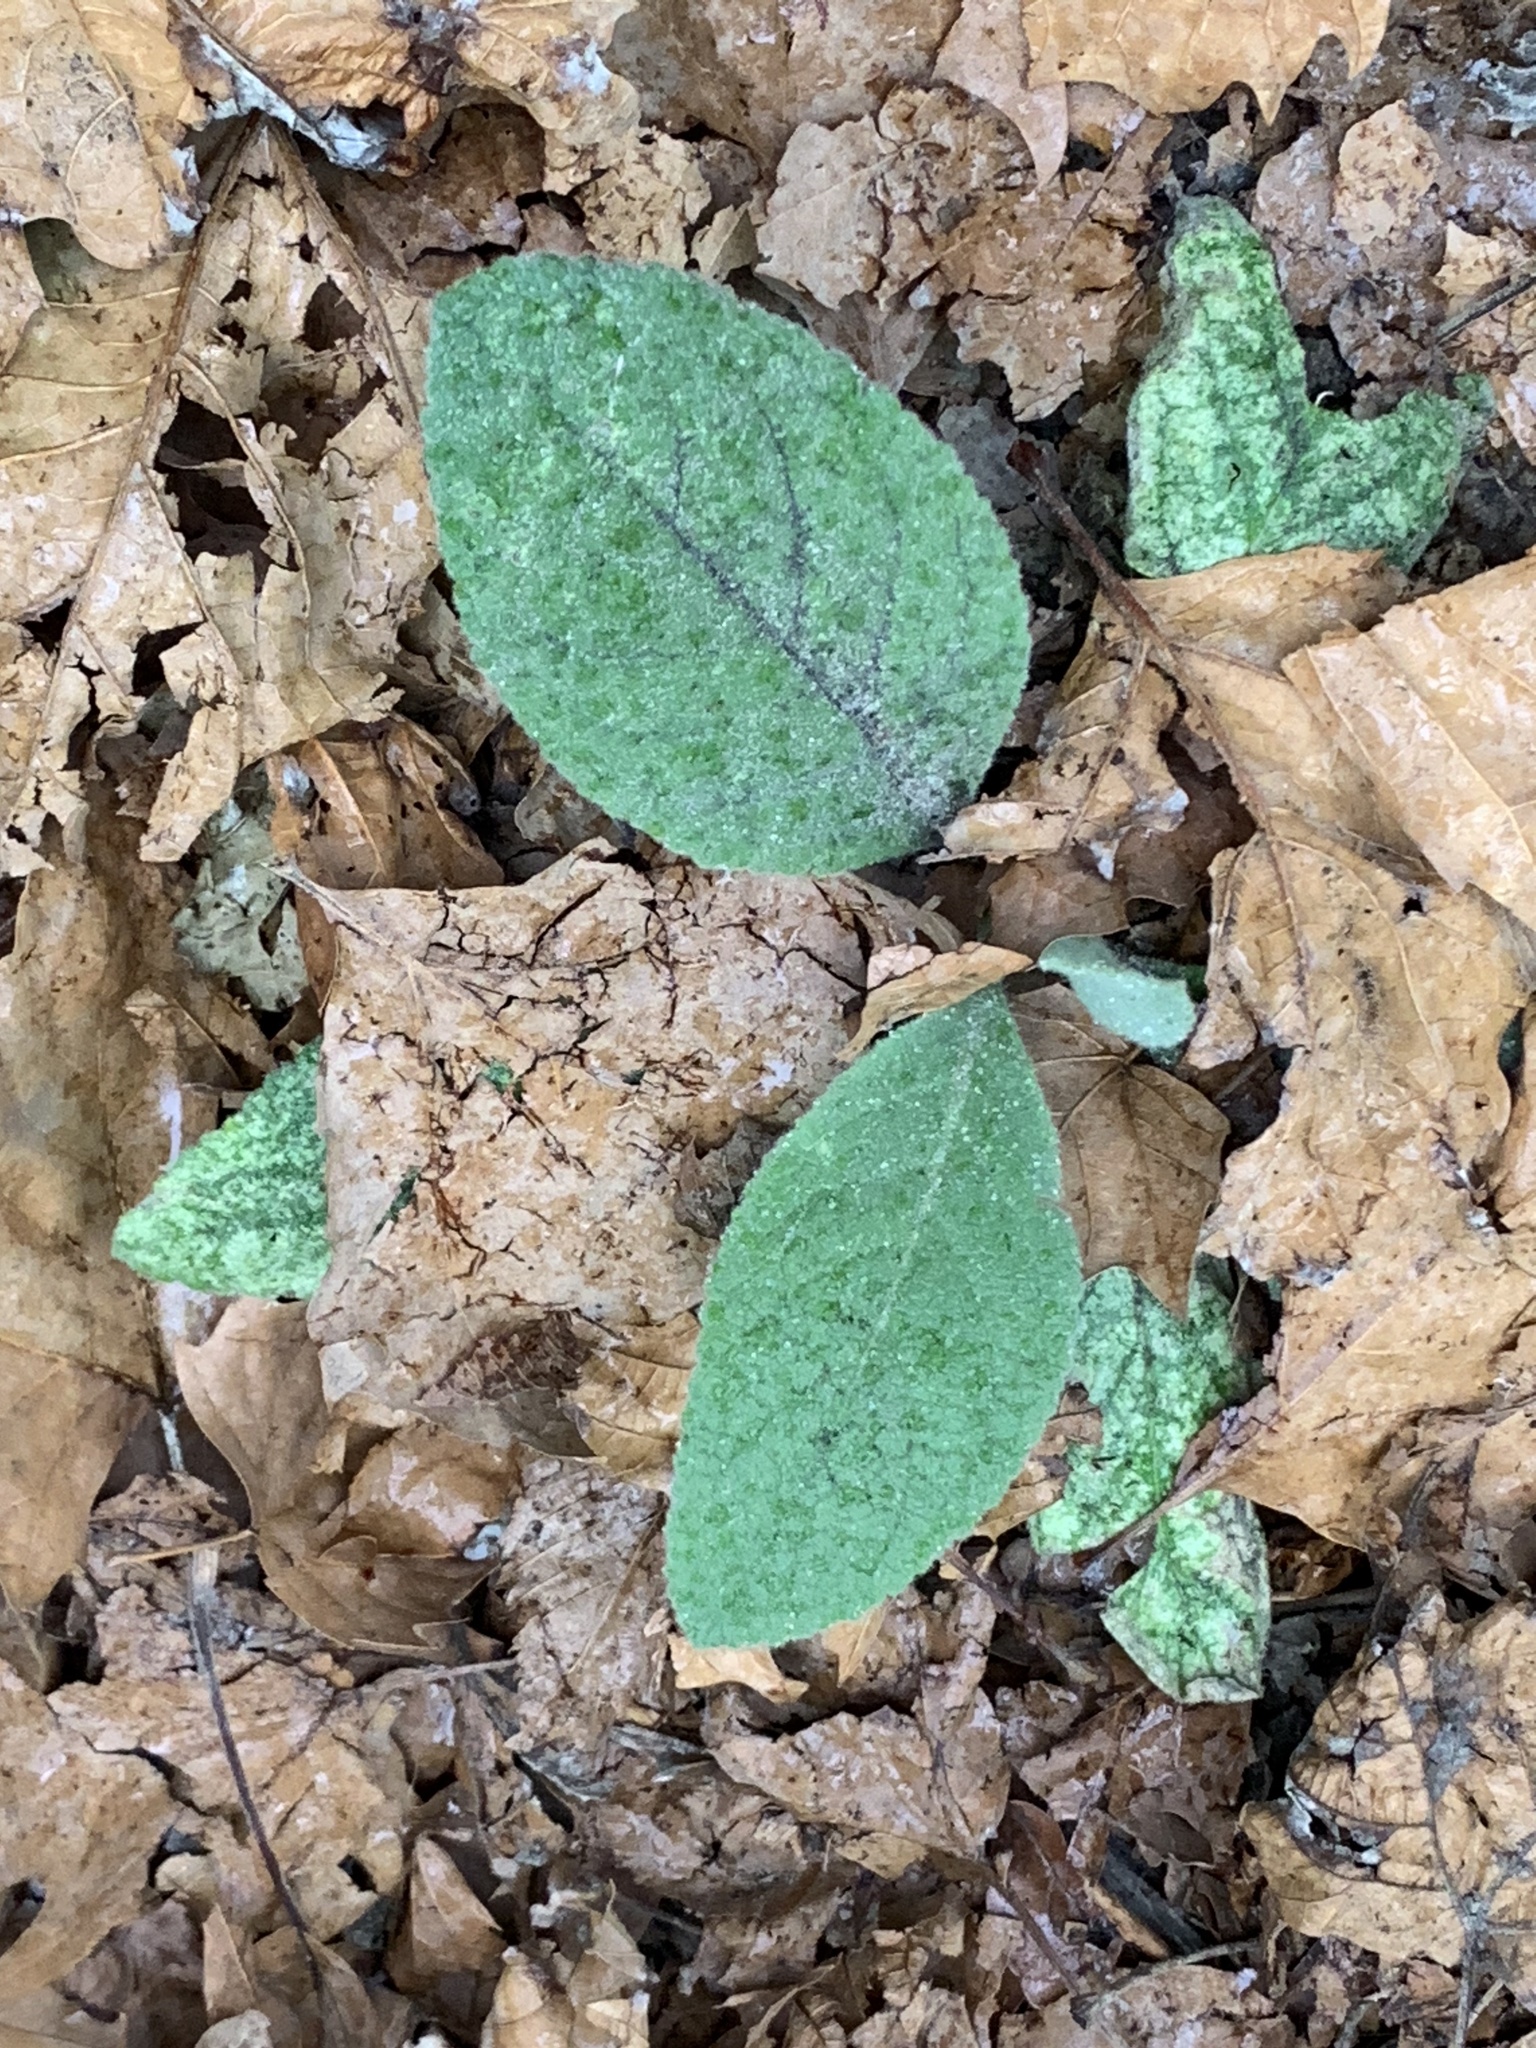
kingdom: Plantae
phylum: Tracheophyta
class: Magnoliopsida
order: Lamiales
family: Scrophulariaceae
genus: Verbascum
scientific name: Verbascum thapsus
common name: Common mullein
